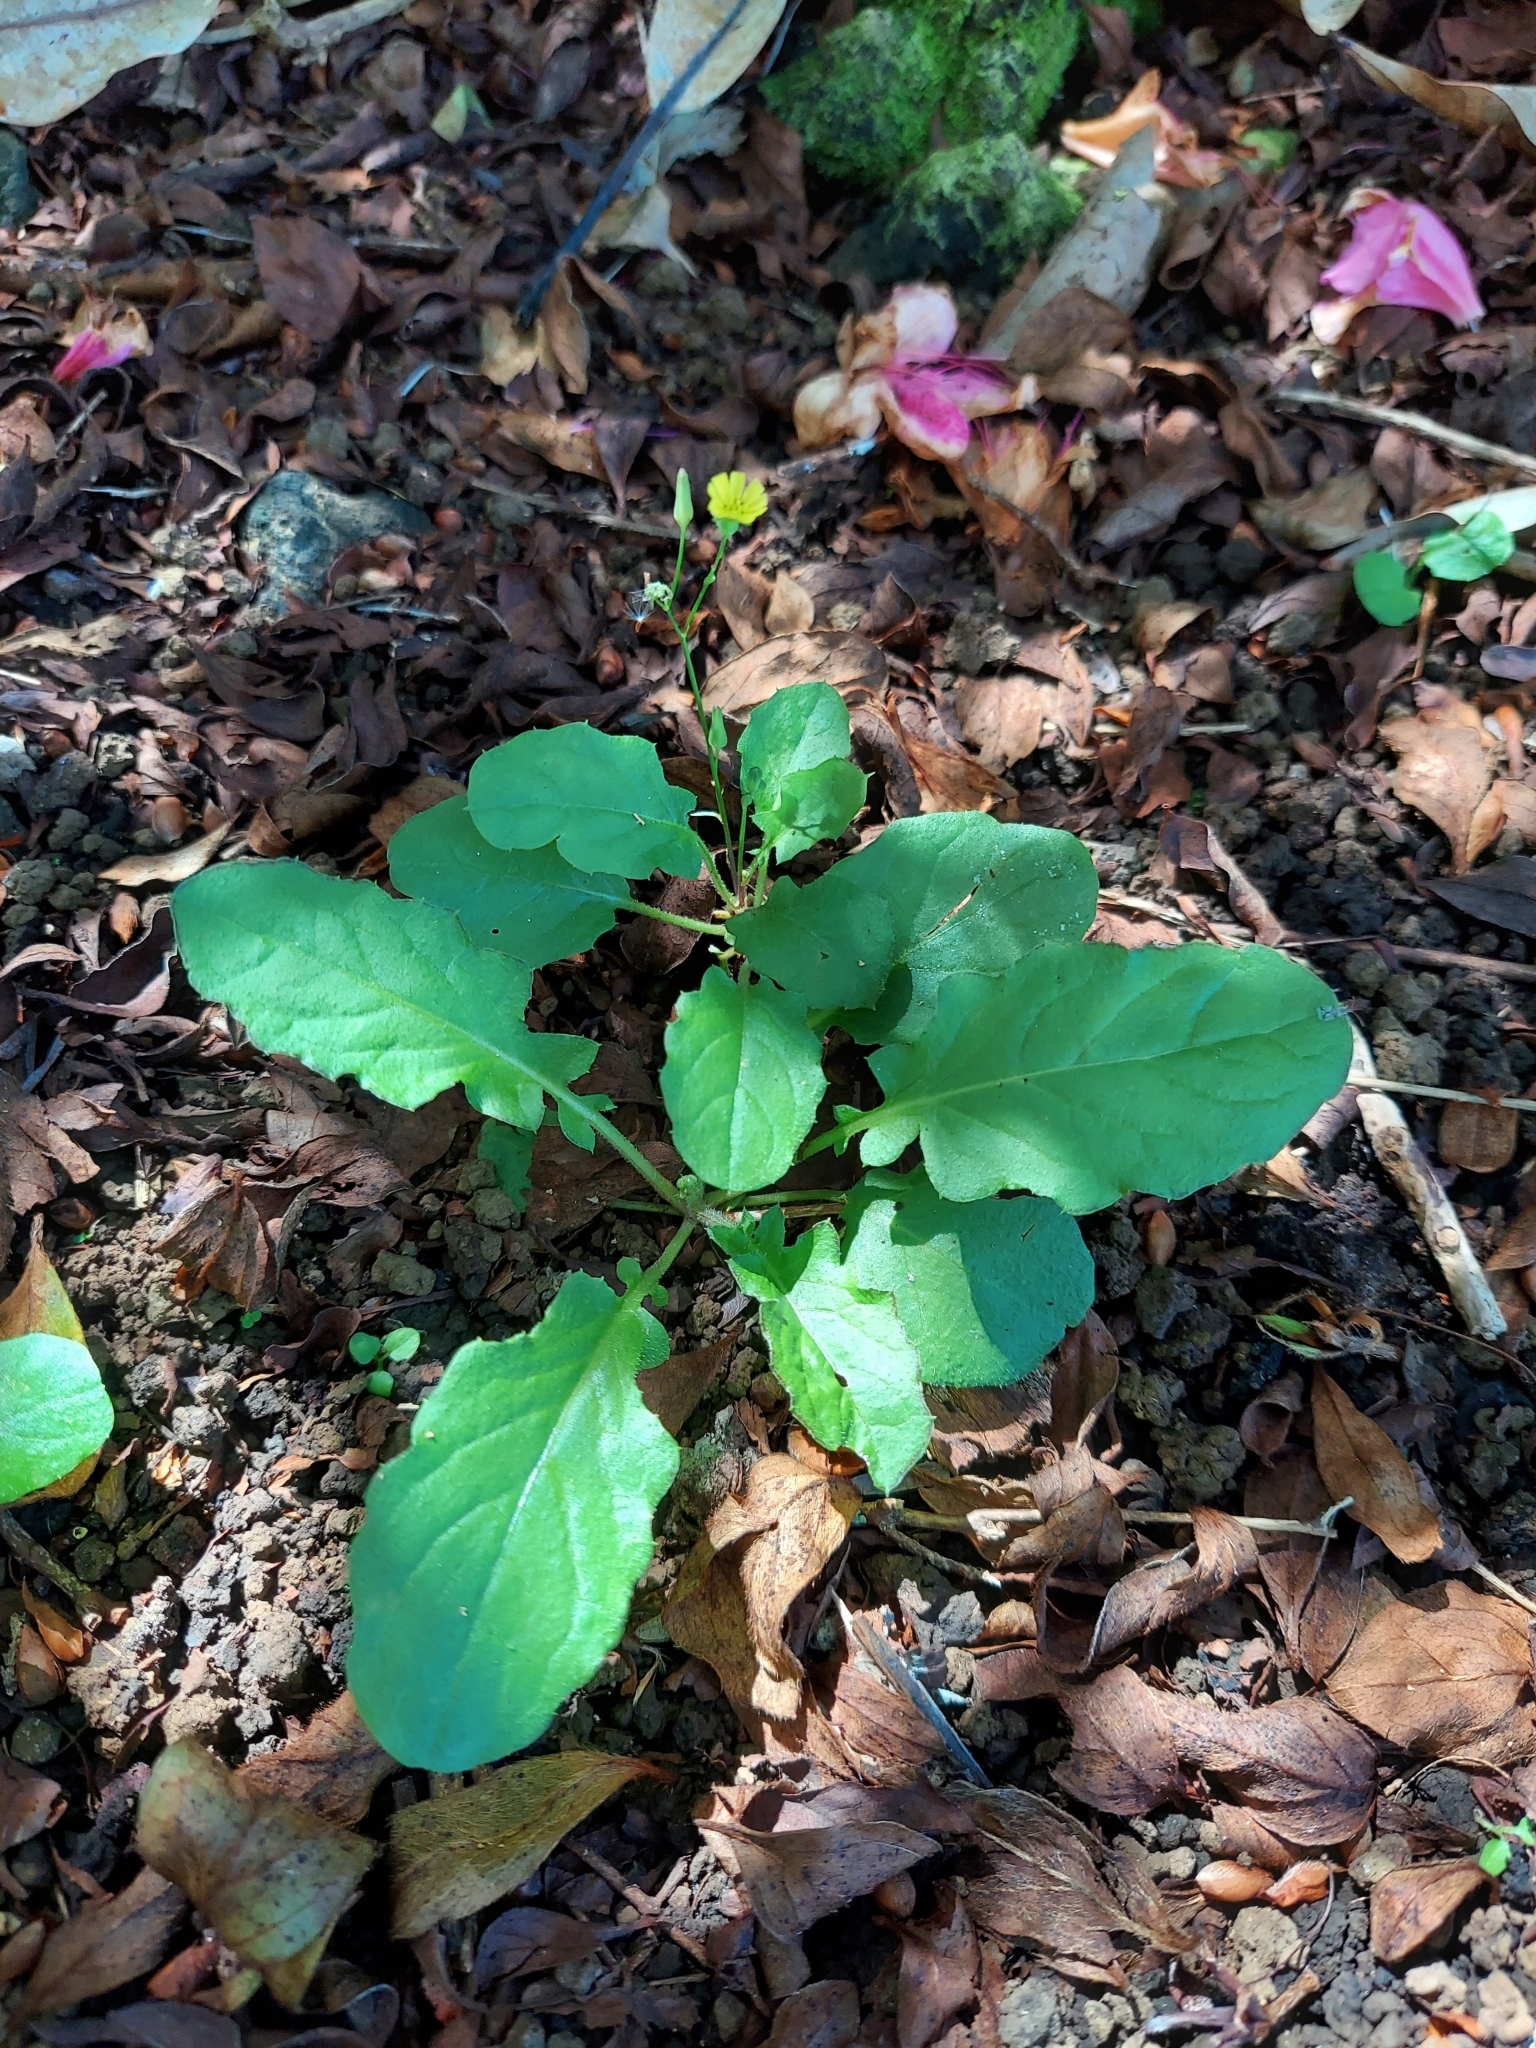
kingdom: Plantae
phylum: Tracheophyta
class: Magnoliopsida
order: Asterales
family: Asteraceae
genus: Youngia
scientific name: Youngia japonica
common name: Oriental false hawksbeard
